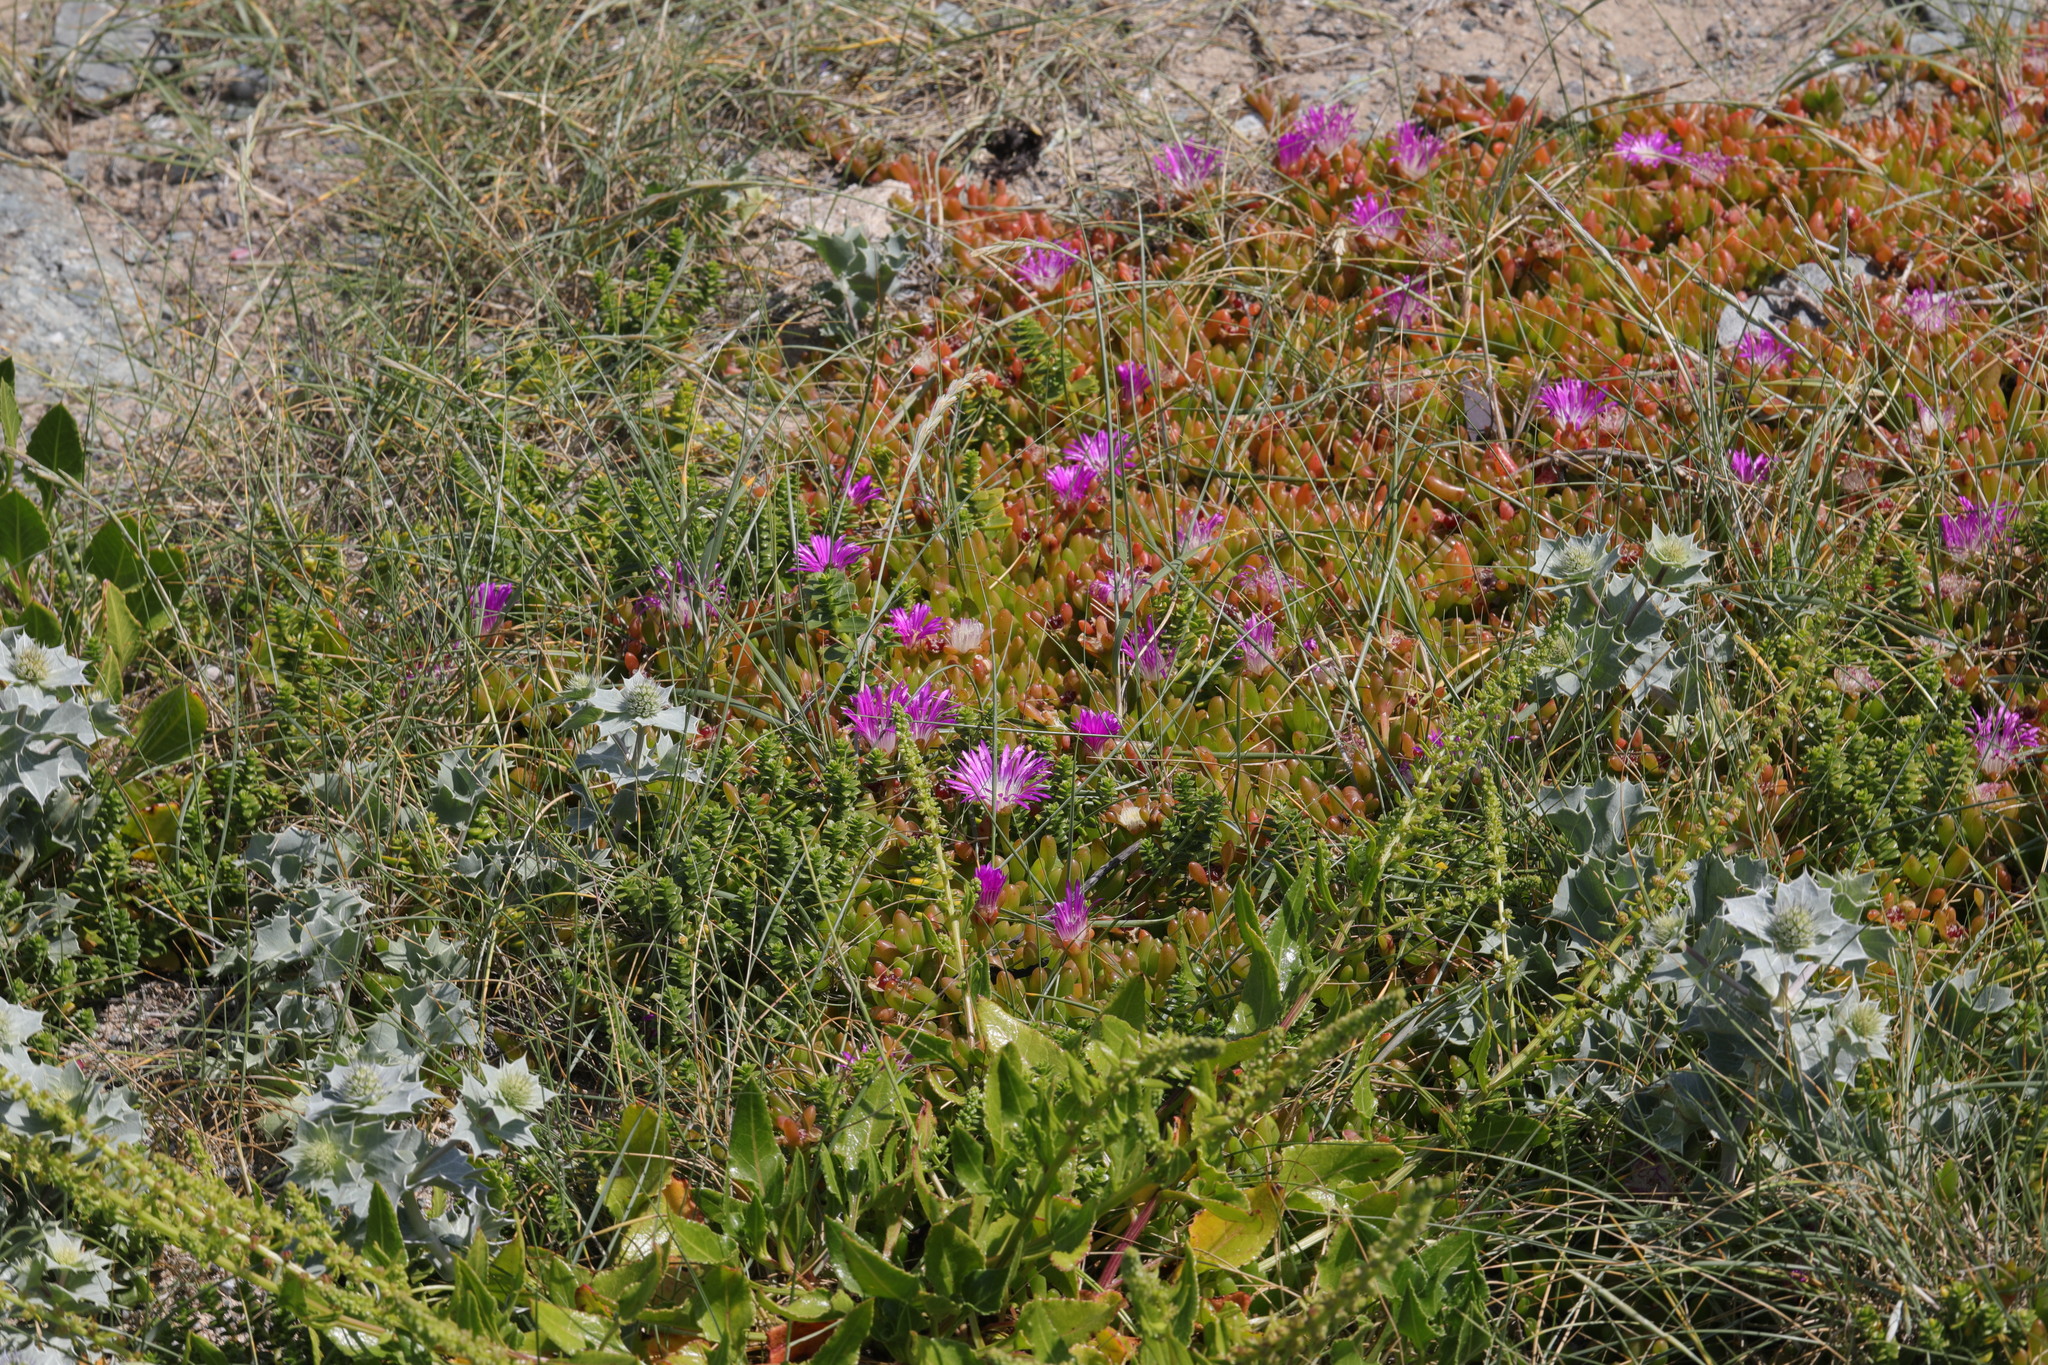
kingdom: Plantae
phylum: Tracheophyta
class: Magnoliopsida
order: Caryophyllales
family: Aizoaceae
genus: Disphyma
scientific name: Disphyma crassifolium
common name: Purple dewplant
